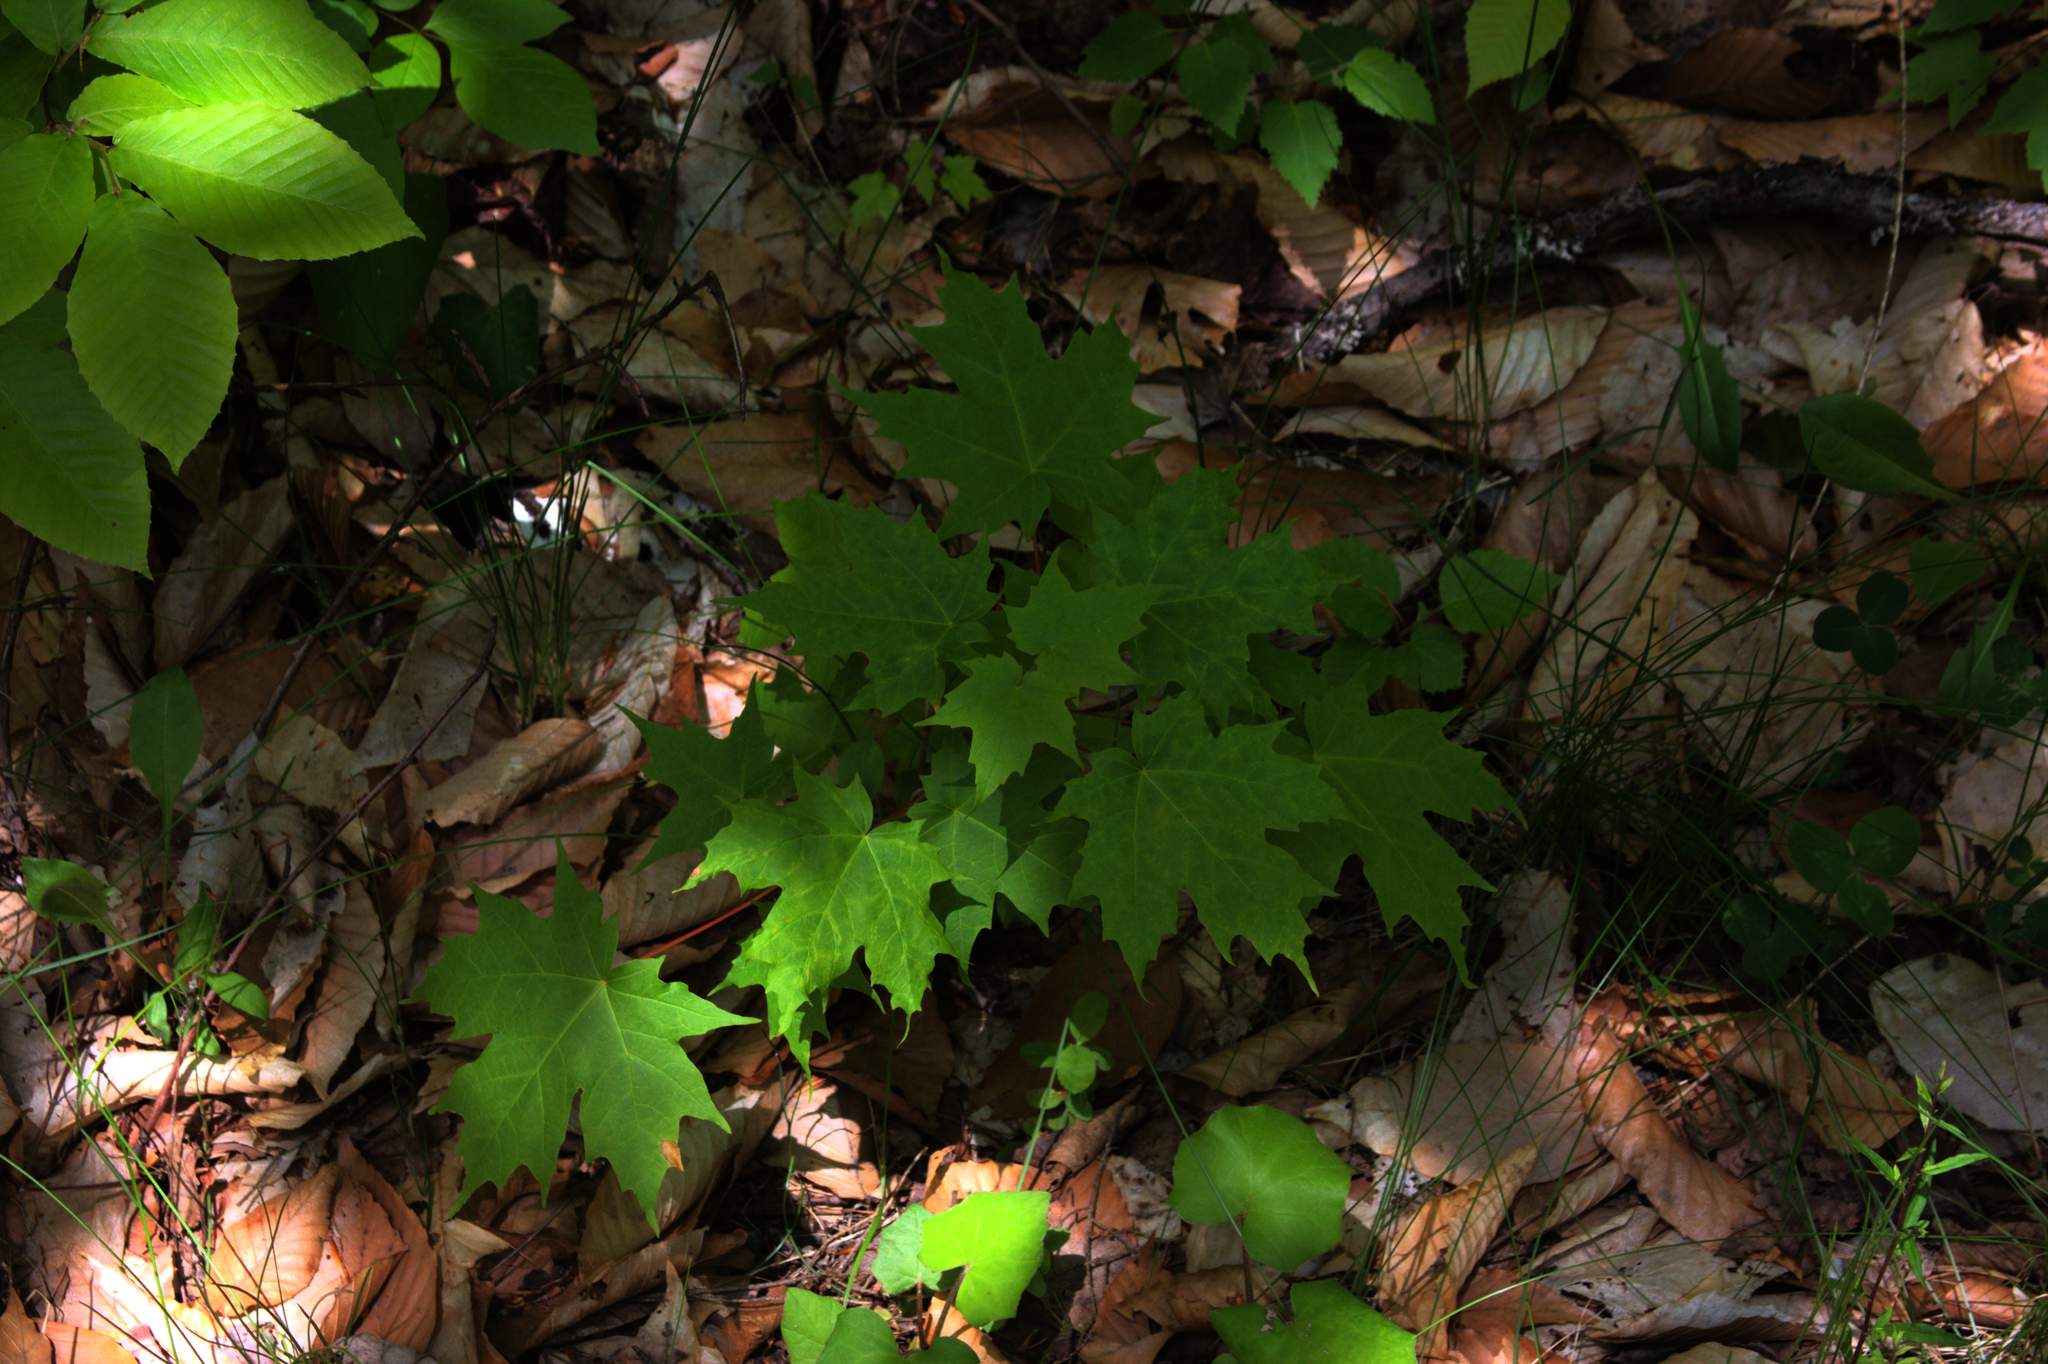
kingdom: Plantae
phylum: Tracheophyta
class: Magnoliopsida
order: Sapindales
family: Sapindaceae
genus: Acer
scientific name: Acer saccharum
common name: Sugar maple
